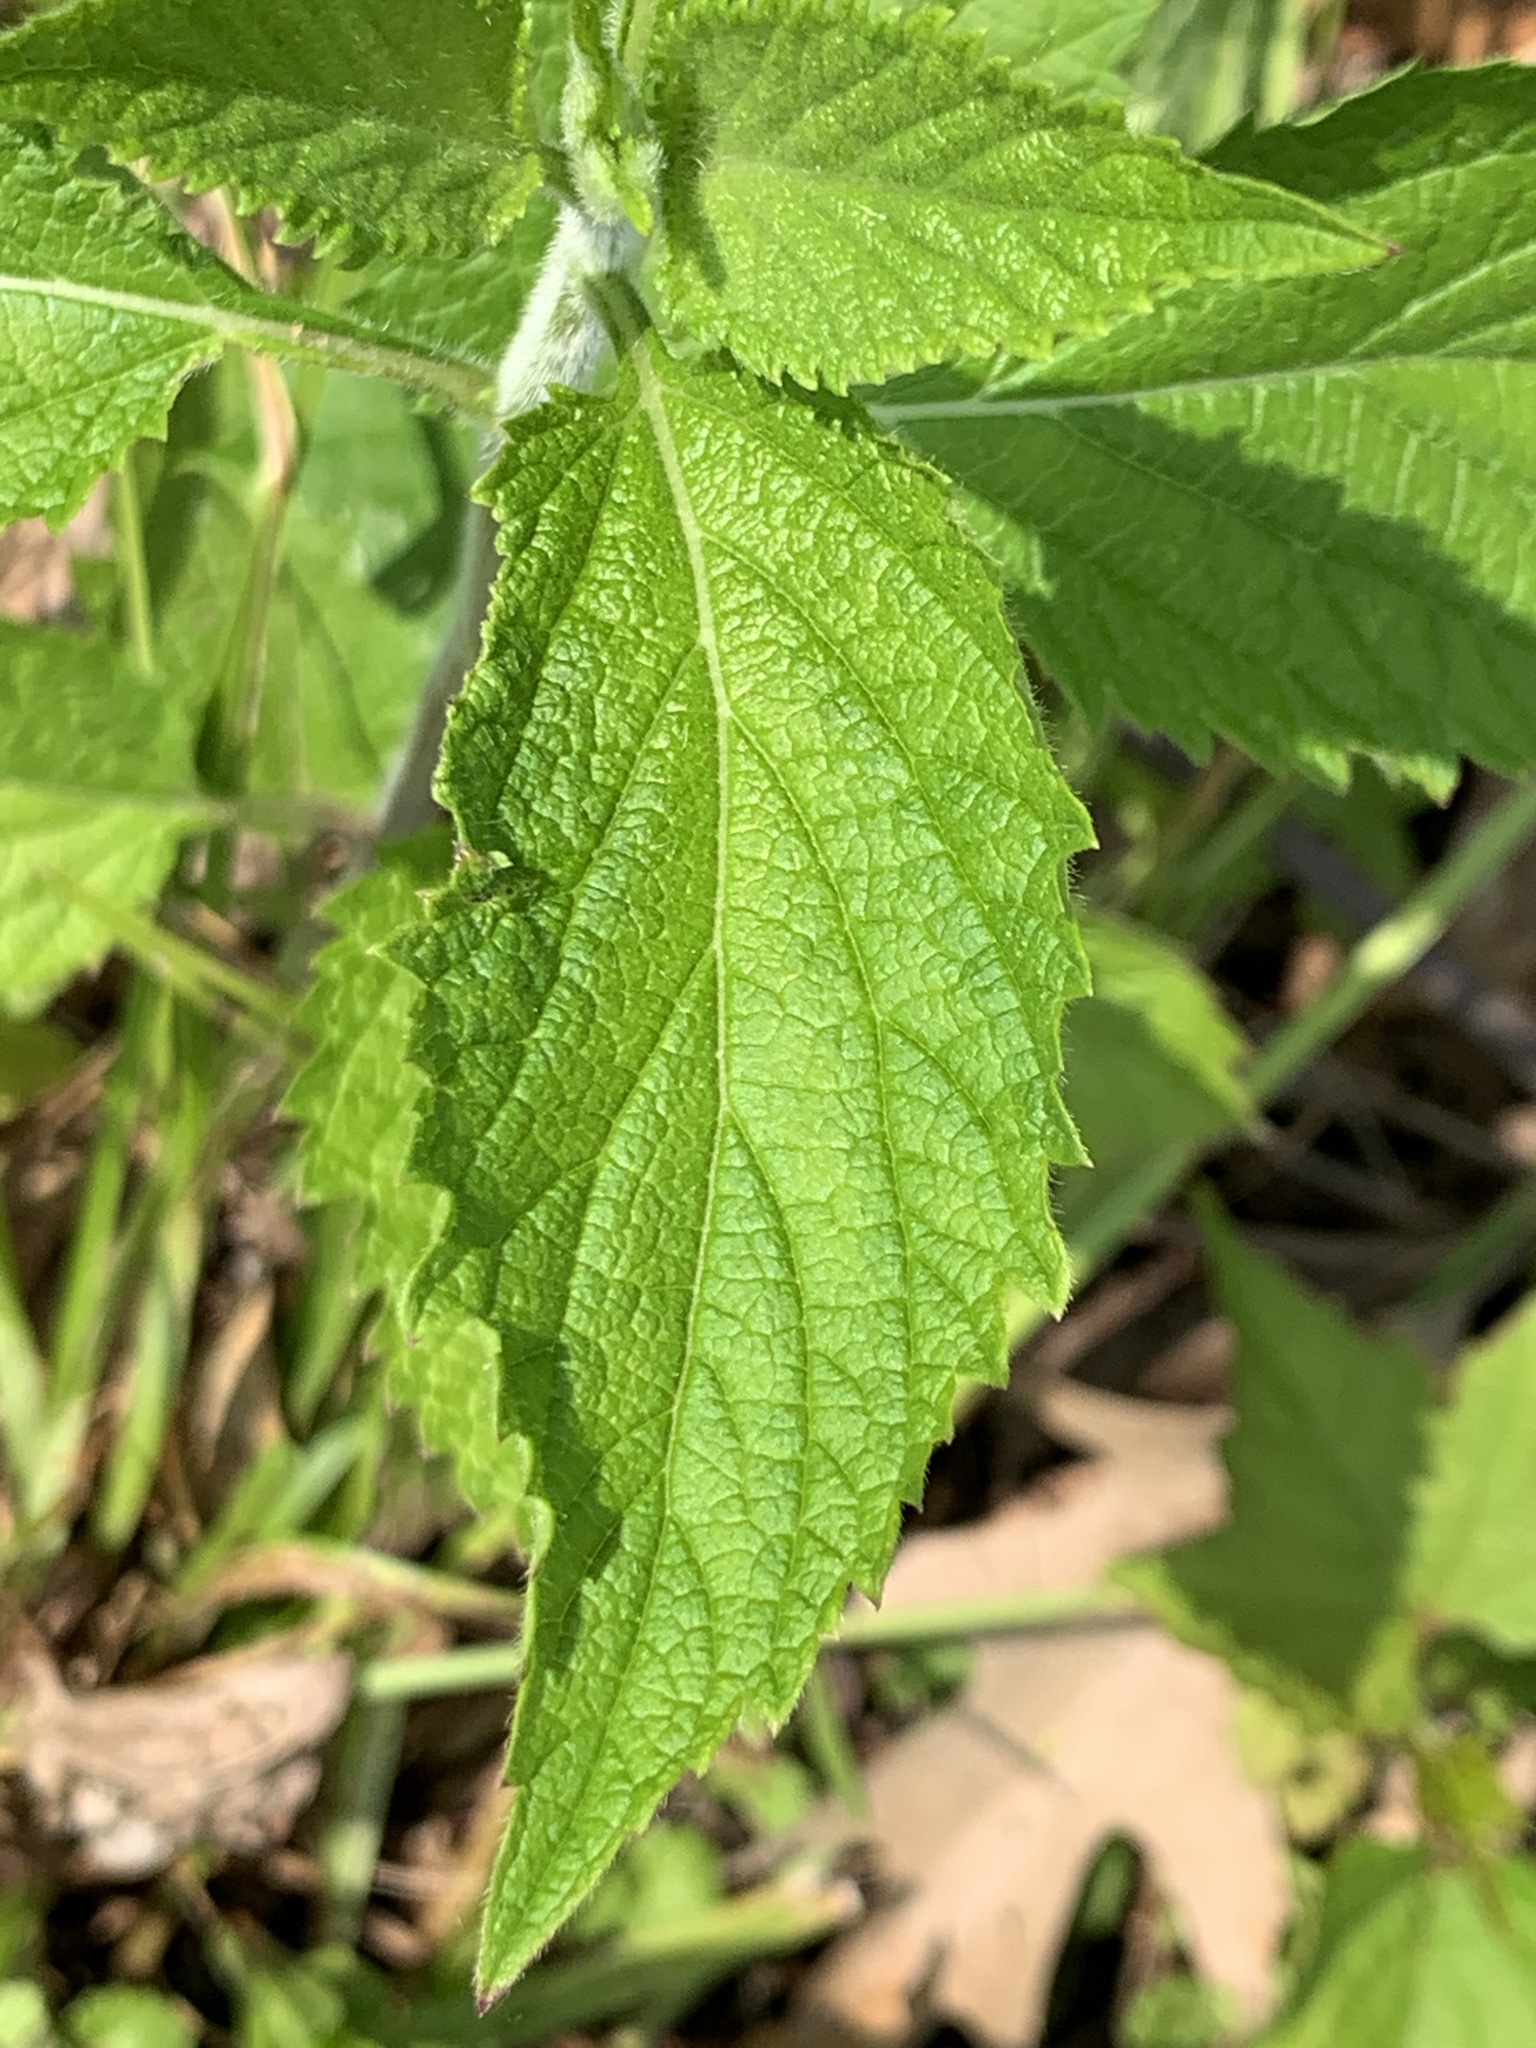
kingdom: Plantae
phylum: Tracheophyta
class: Magnoliopsida
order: Lamiales
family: Verbenaceae
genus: Verbena
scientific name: Verbena urticifolia
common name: Nettle-leaved vervain
